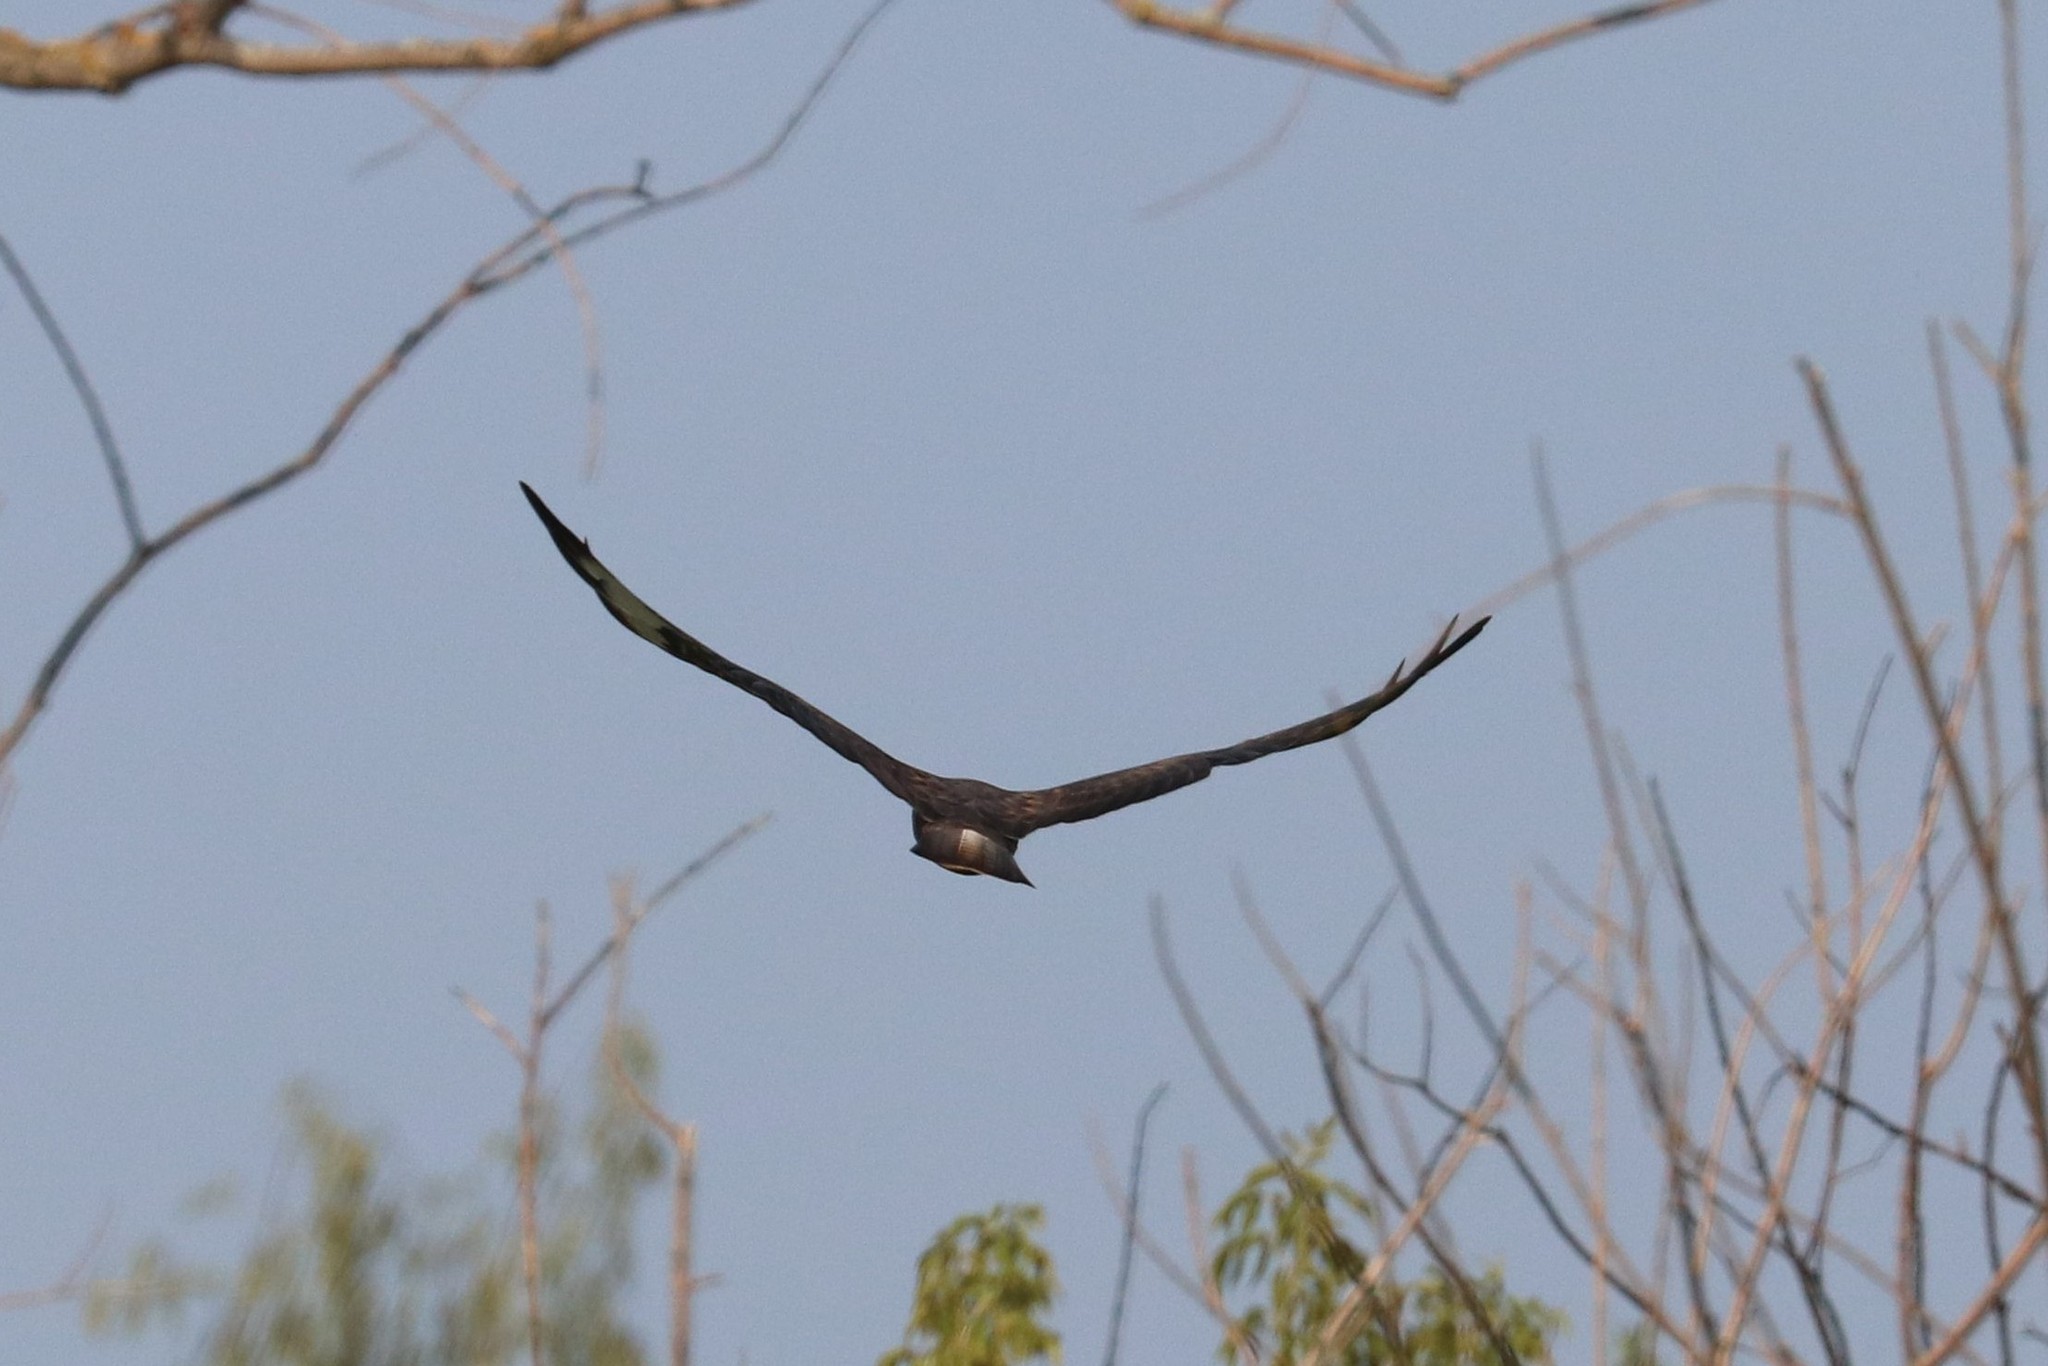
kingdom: Animalia
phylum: Chordata
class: Aves
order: Accipitriformes
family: Accipitridae
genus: Buteo
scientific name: Buteo buteo
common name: Common buzzard
